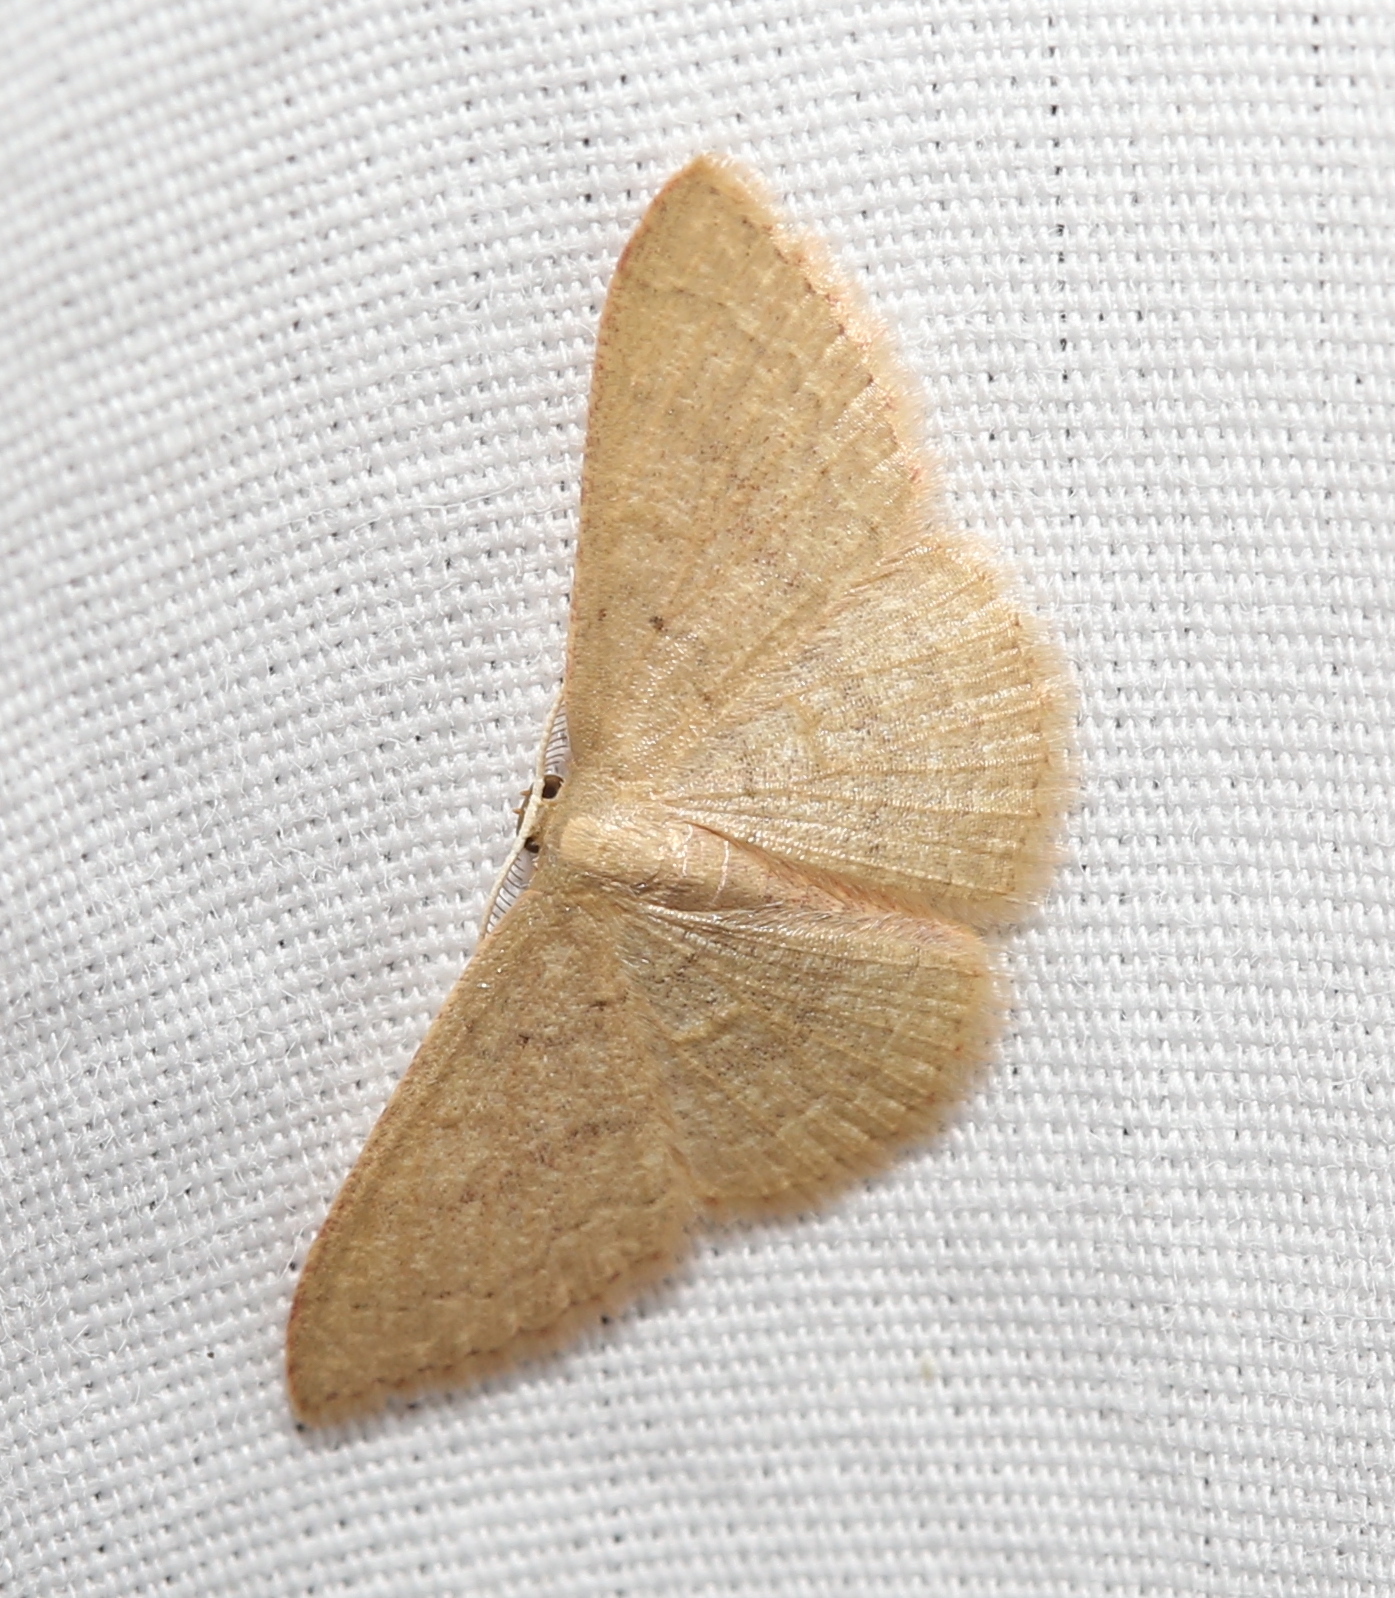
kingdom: Animalia
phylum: Arthropoda
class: Insecta
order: Lepidoptera
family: Geometridae
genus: Pleuroprucha
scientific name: Pleuroprucha insulsaria
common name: Common tan wave
